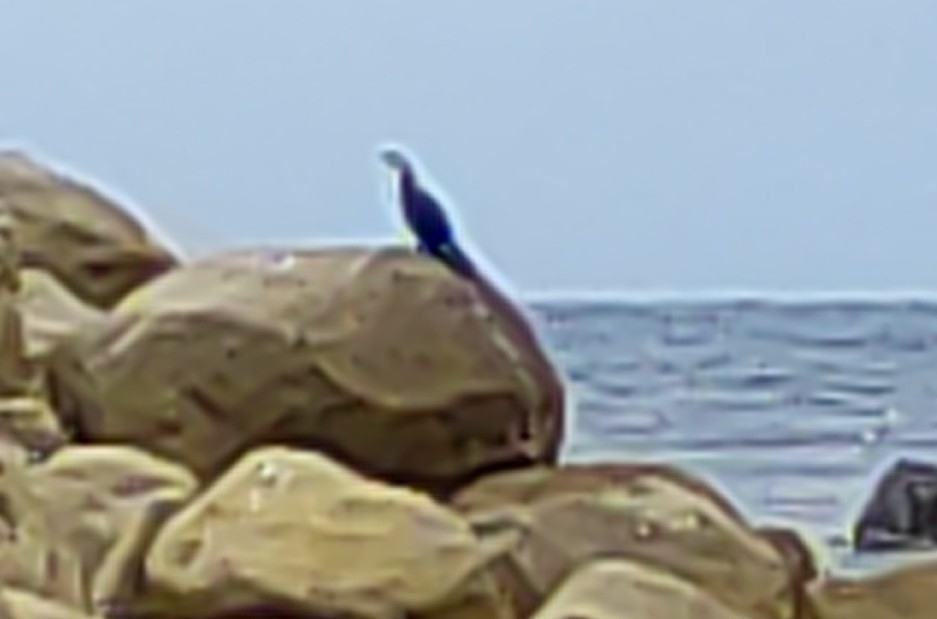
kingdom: Animalia
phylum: Chordata
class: Aves
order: Suliformes
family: Phalacrocoracidae
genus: Microcarbo
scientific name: Microcarbo melanoleucos
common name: Little pied cormorant
